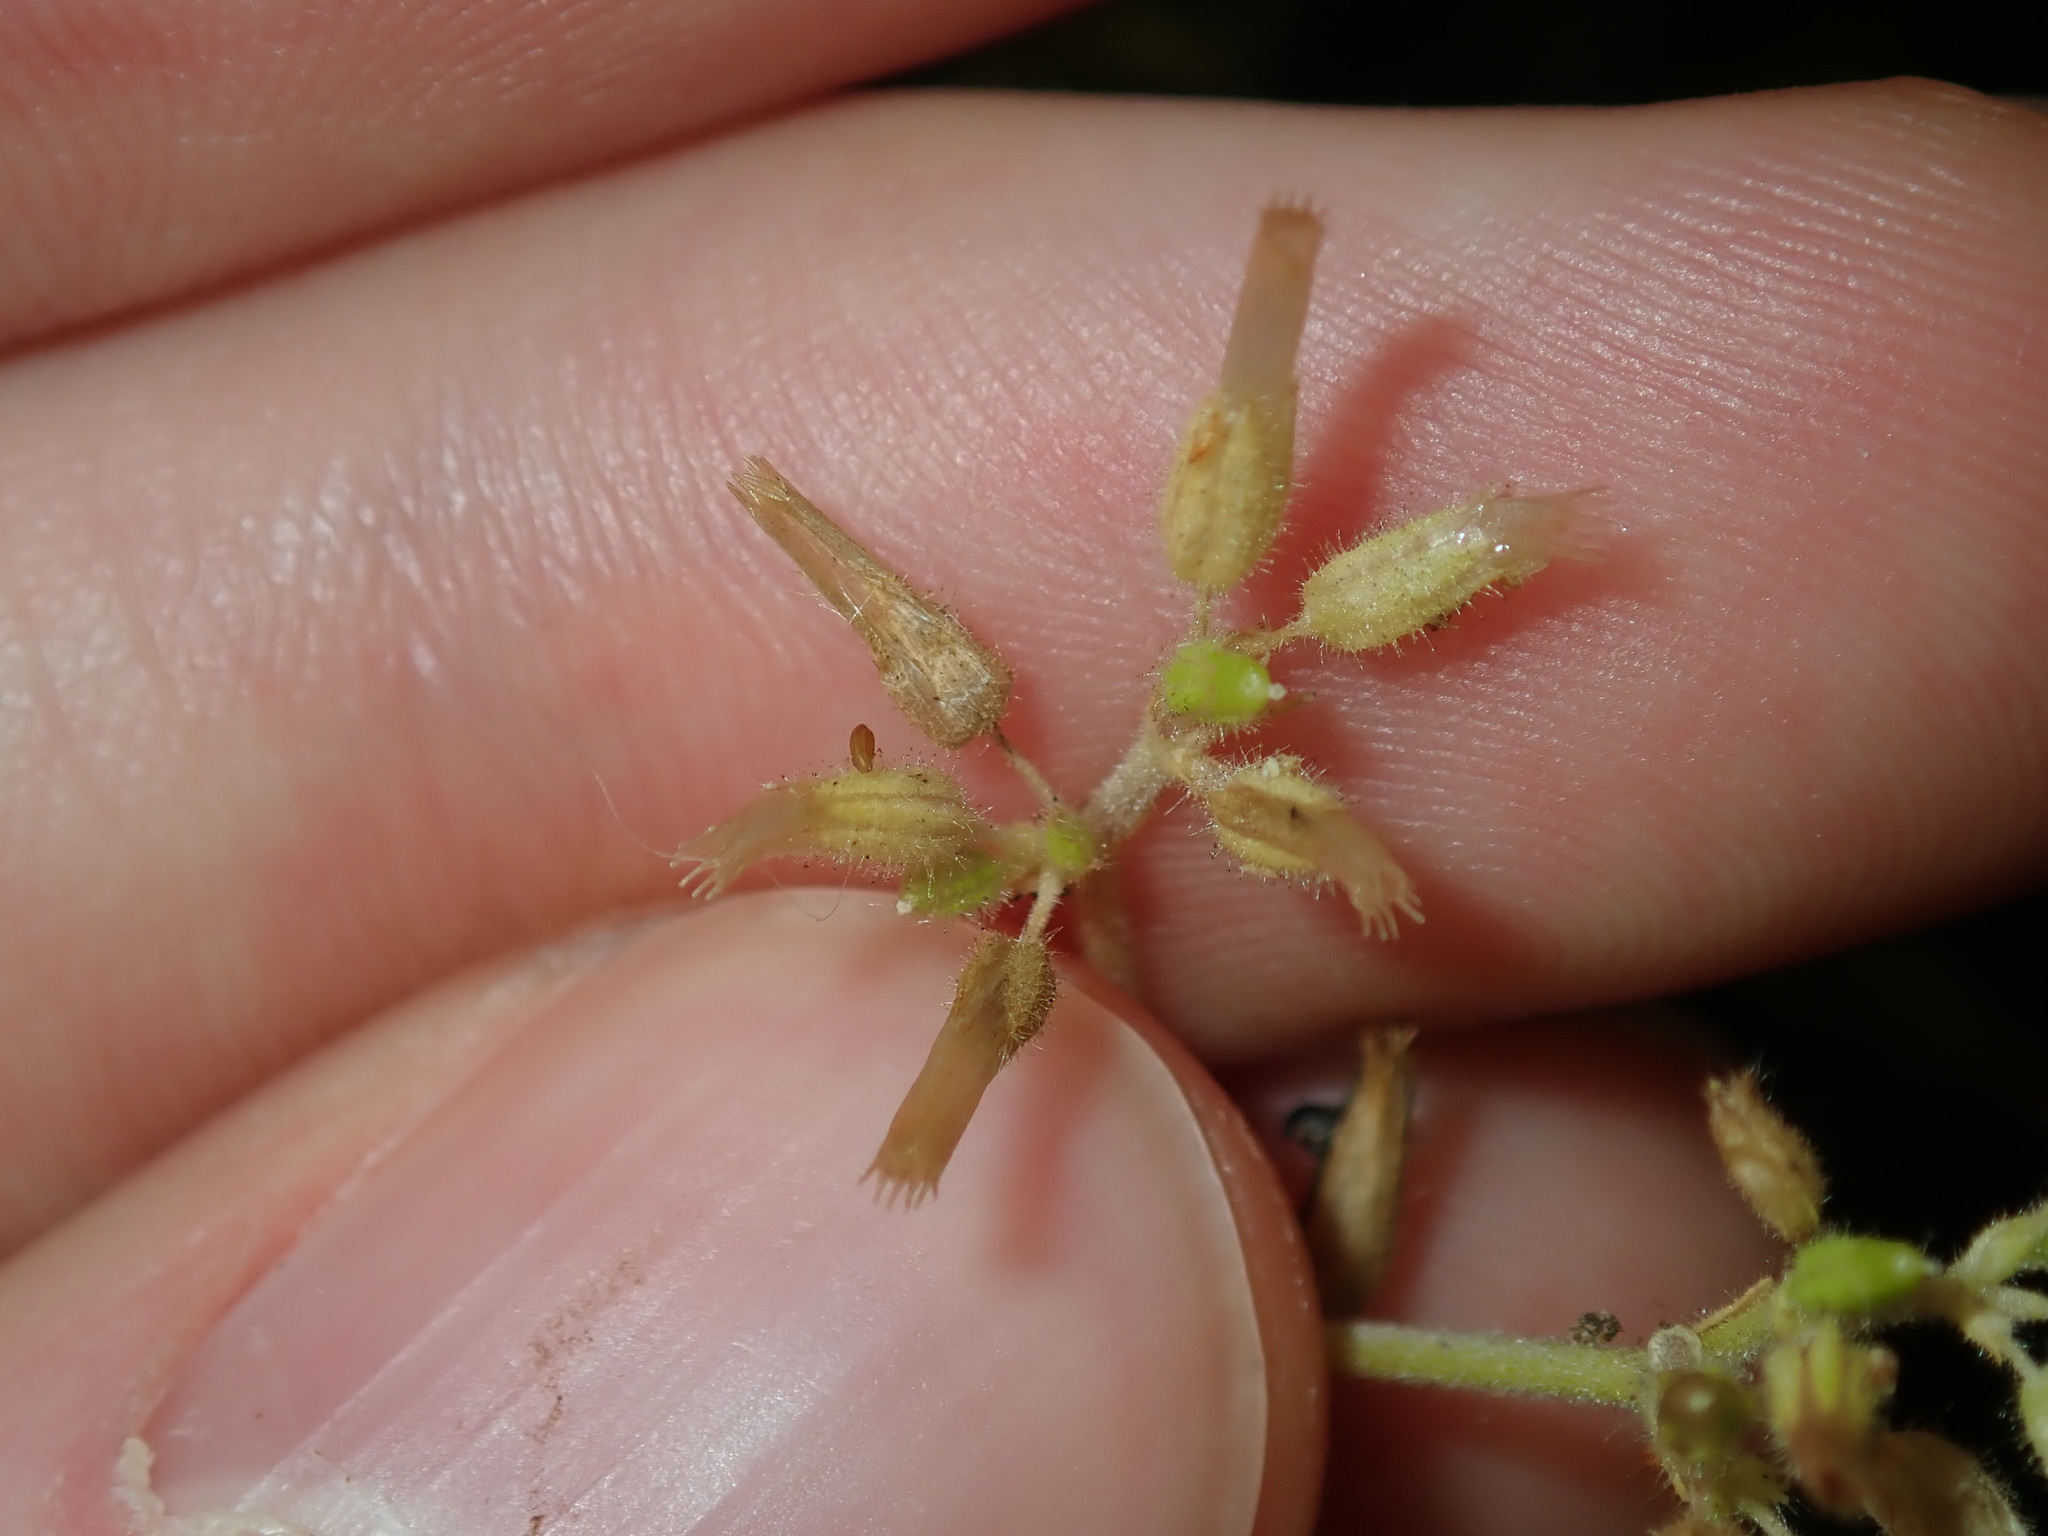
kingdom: Plantae
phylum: Tracheophyta
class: Magnoliopsida
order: Caryophyllales
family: Caryophyllaceae
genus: Cerastium
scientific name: Cerastium glomeratum
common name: Sticky chickweed
